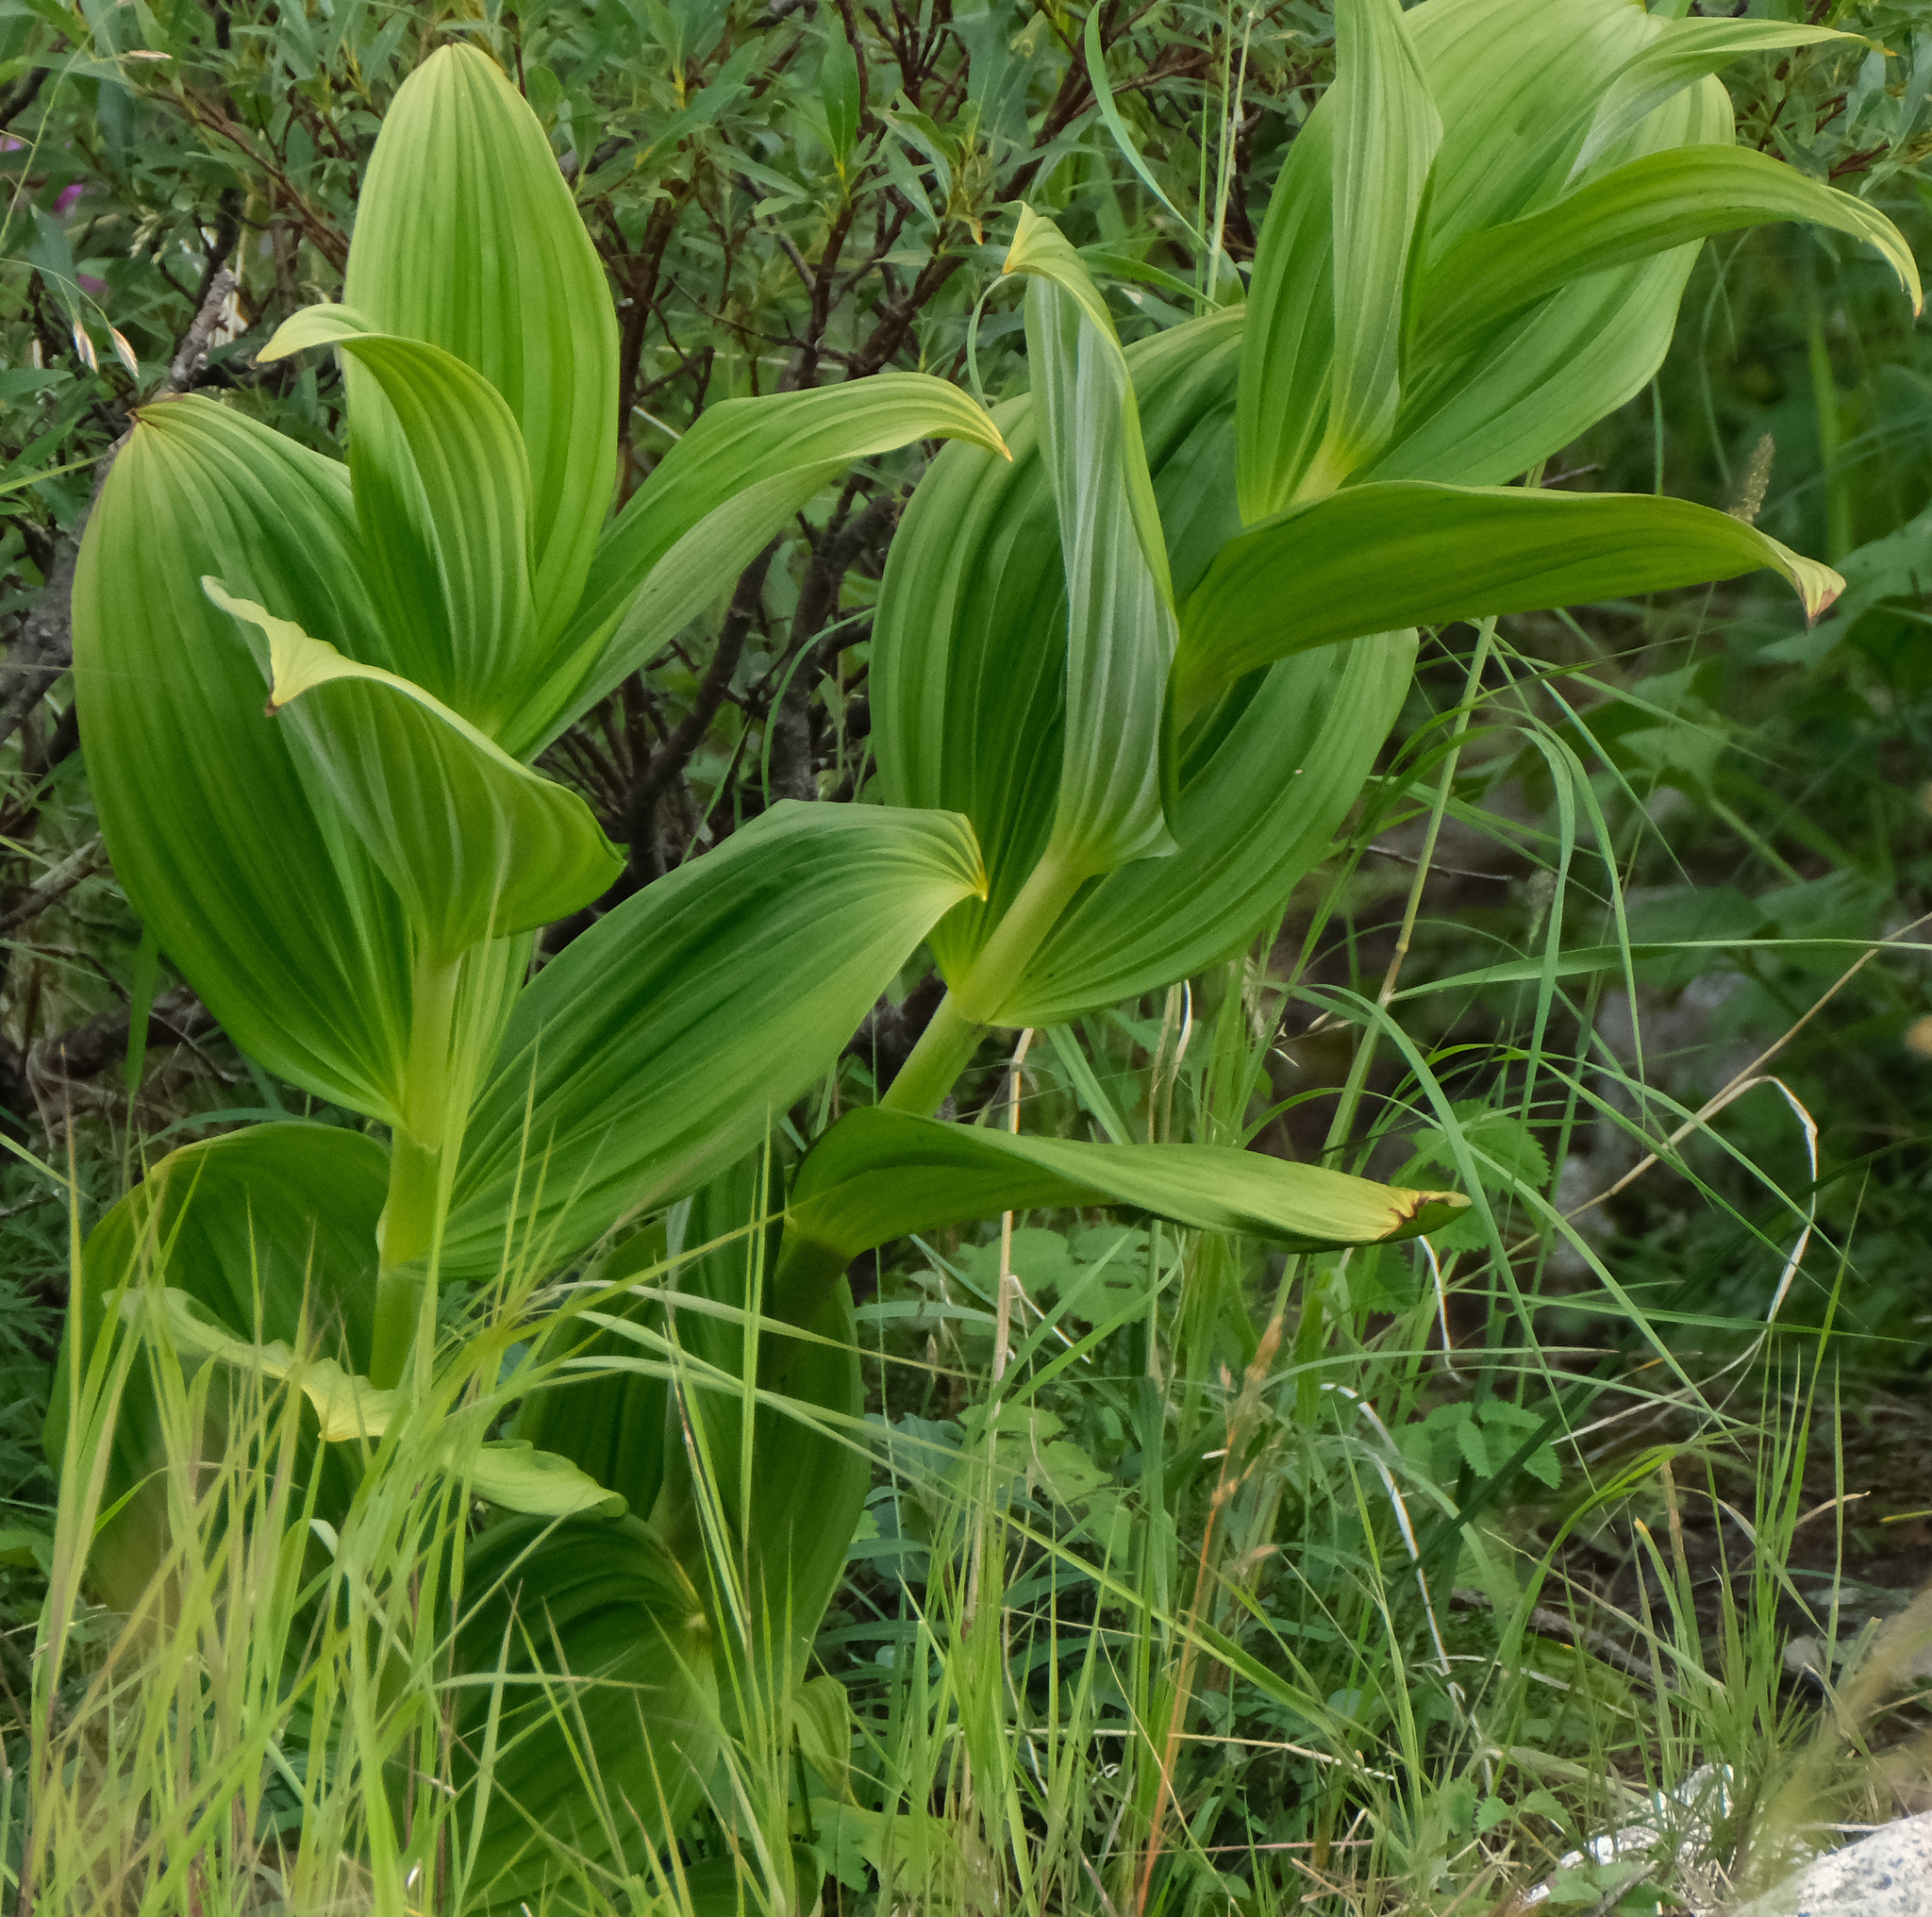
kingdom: Plantae
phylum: Tracheophyta
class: Liliopsida
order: Liliales
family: Melanthiaceae
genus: Veratrum
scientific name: Veratrum viride
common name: American false hellebore
